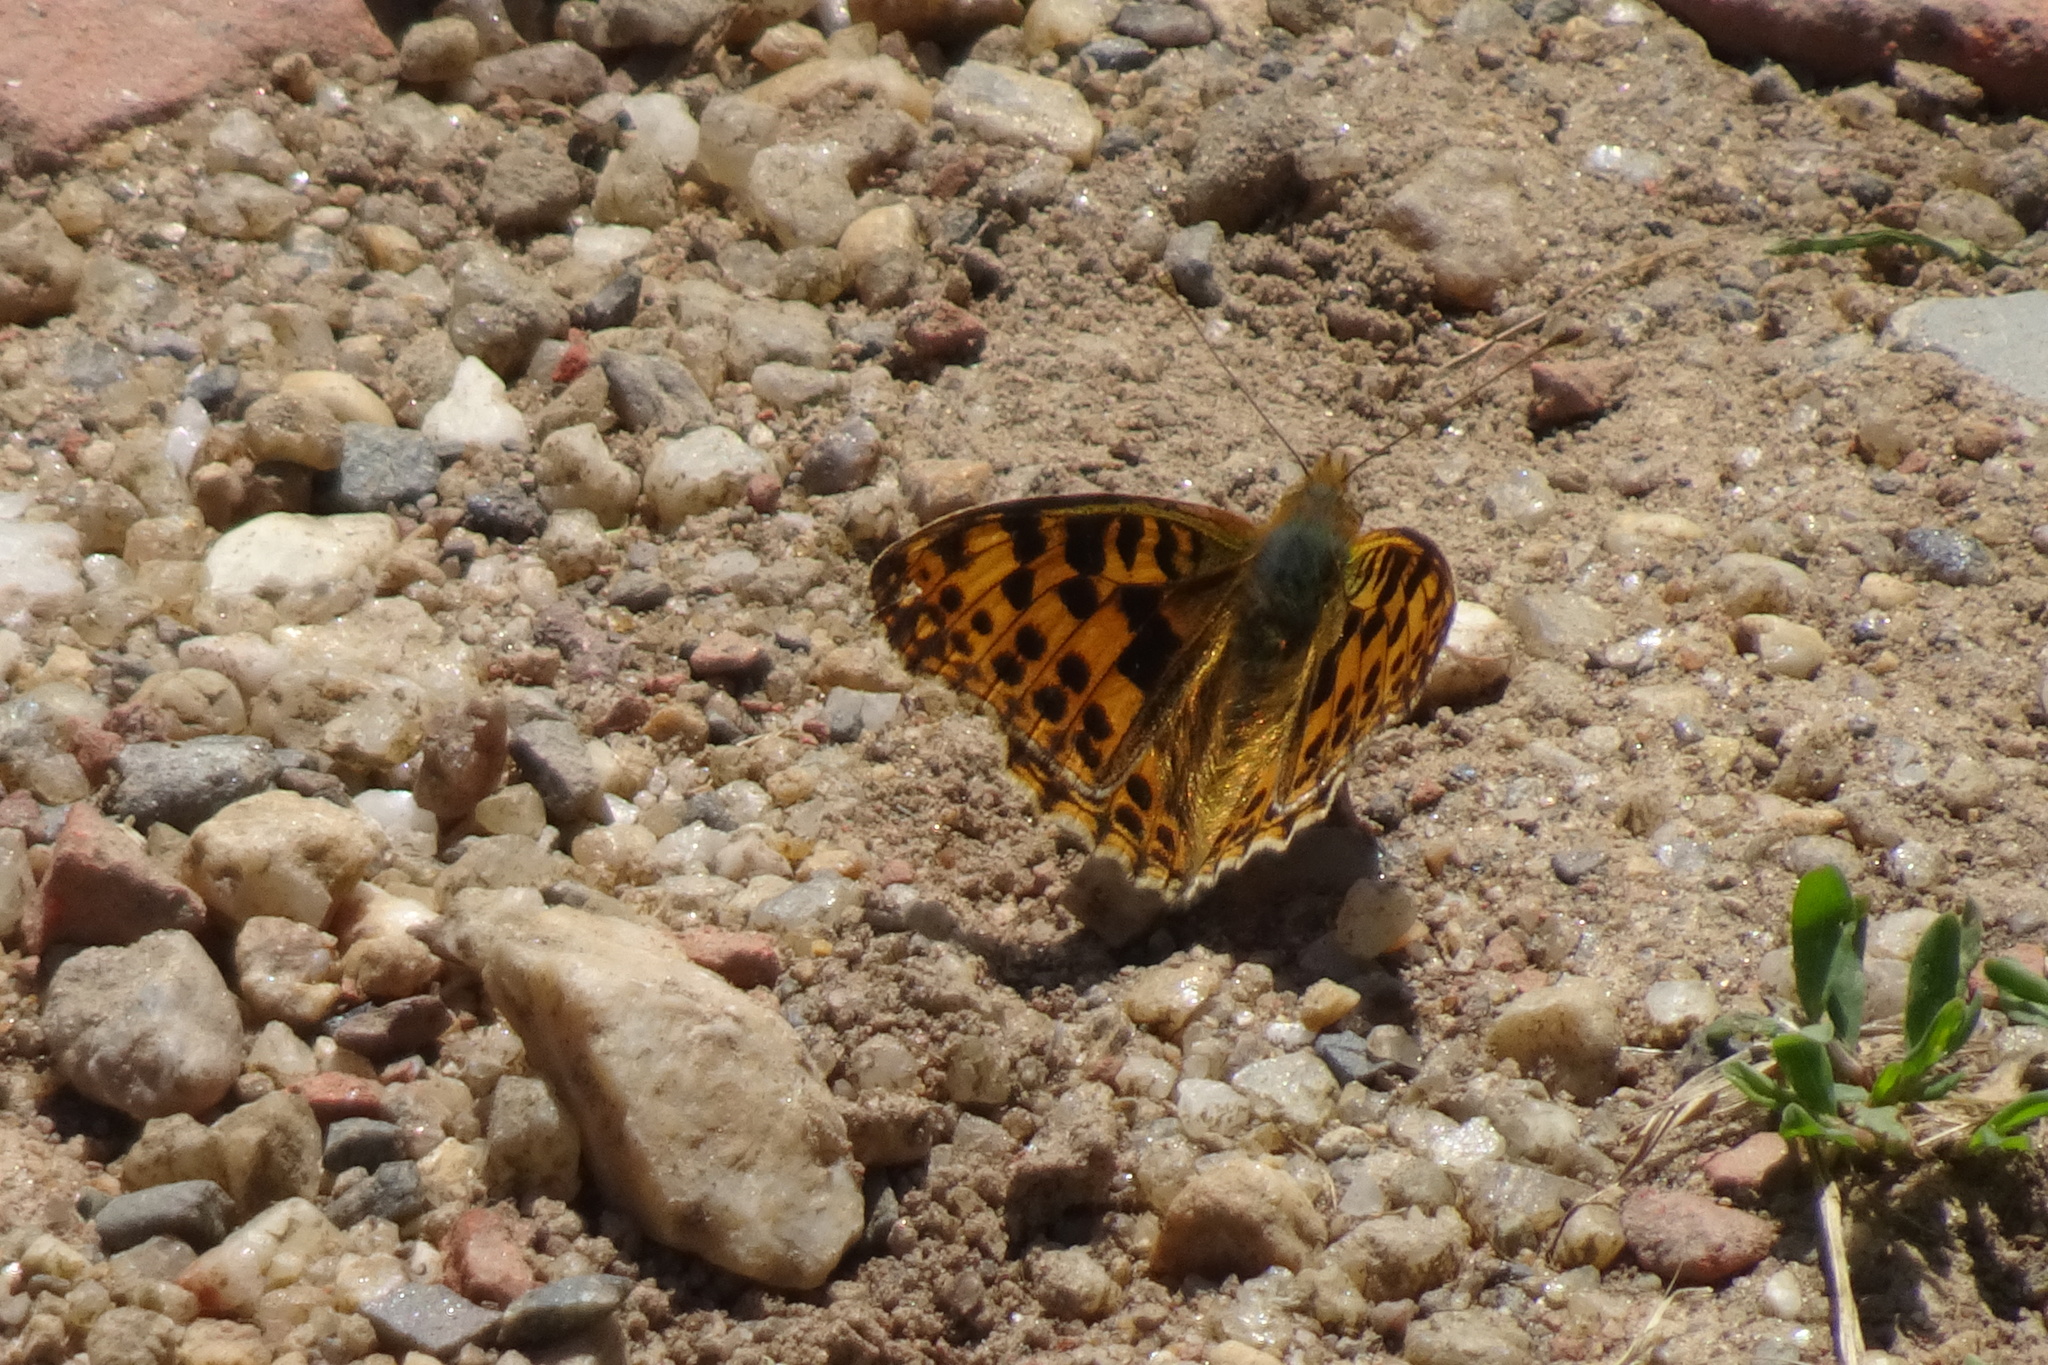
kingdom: Animalia
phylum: Arthropoda
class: Insecta
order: Lepidoptera
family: Nymphalidae
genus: Issoria
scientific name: Issoria lathonia
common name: Queen of spain fritillary
